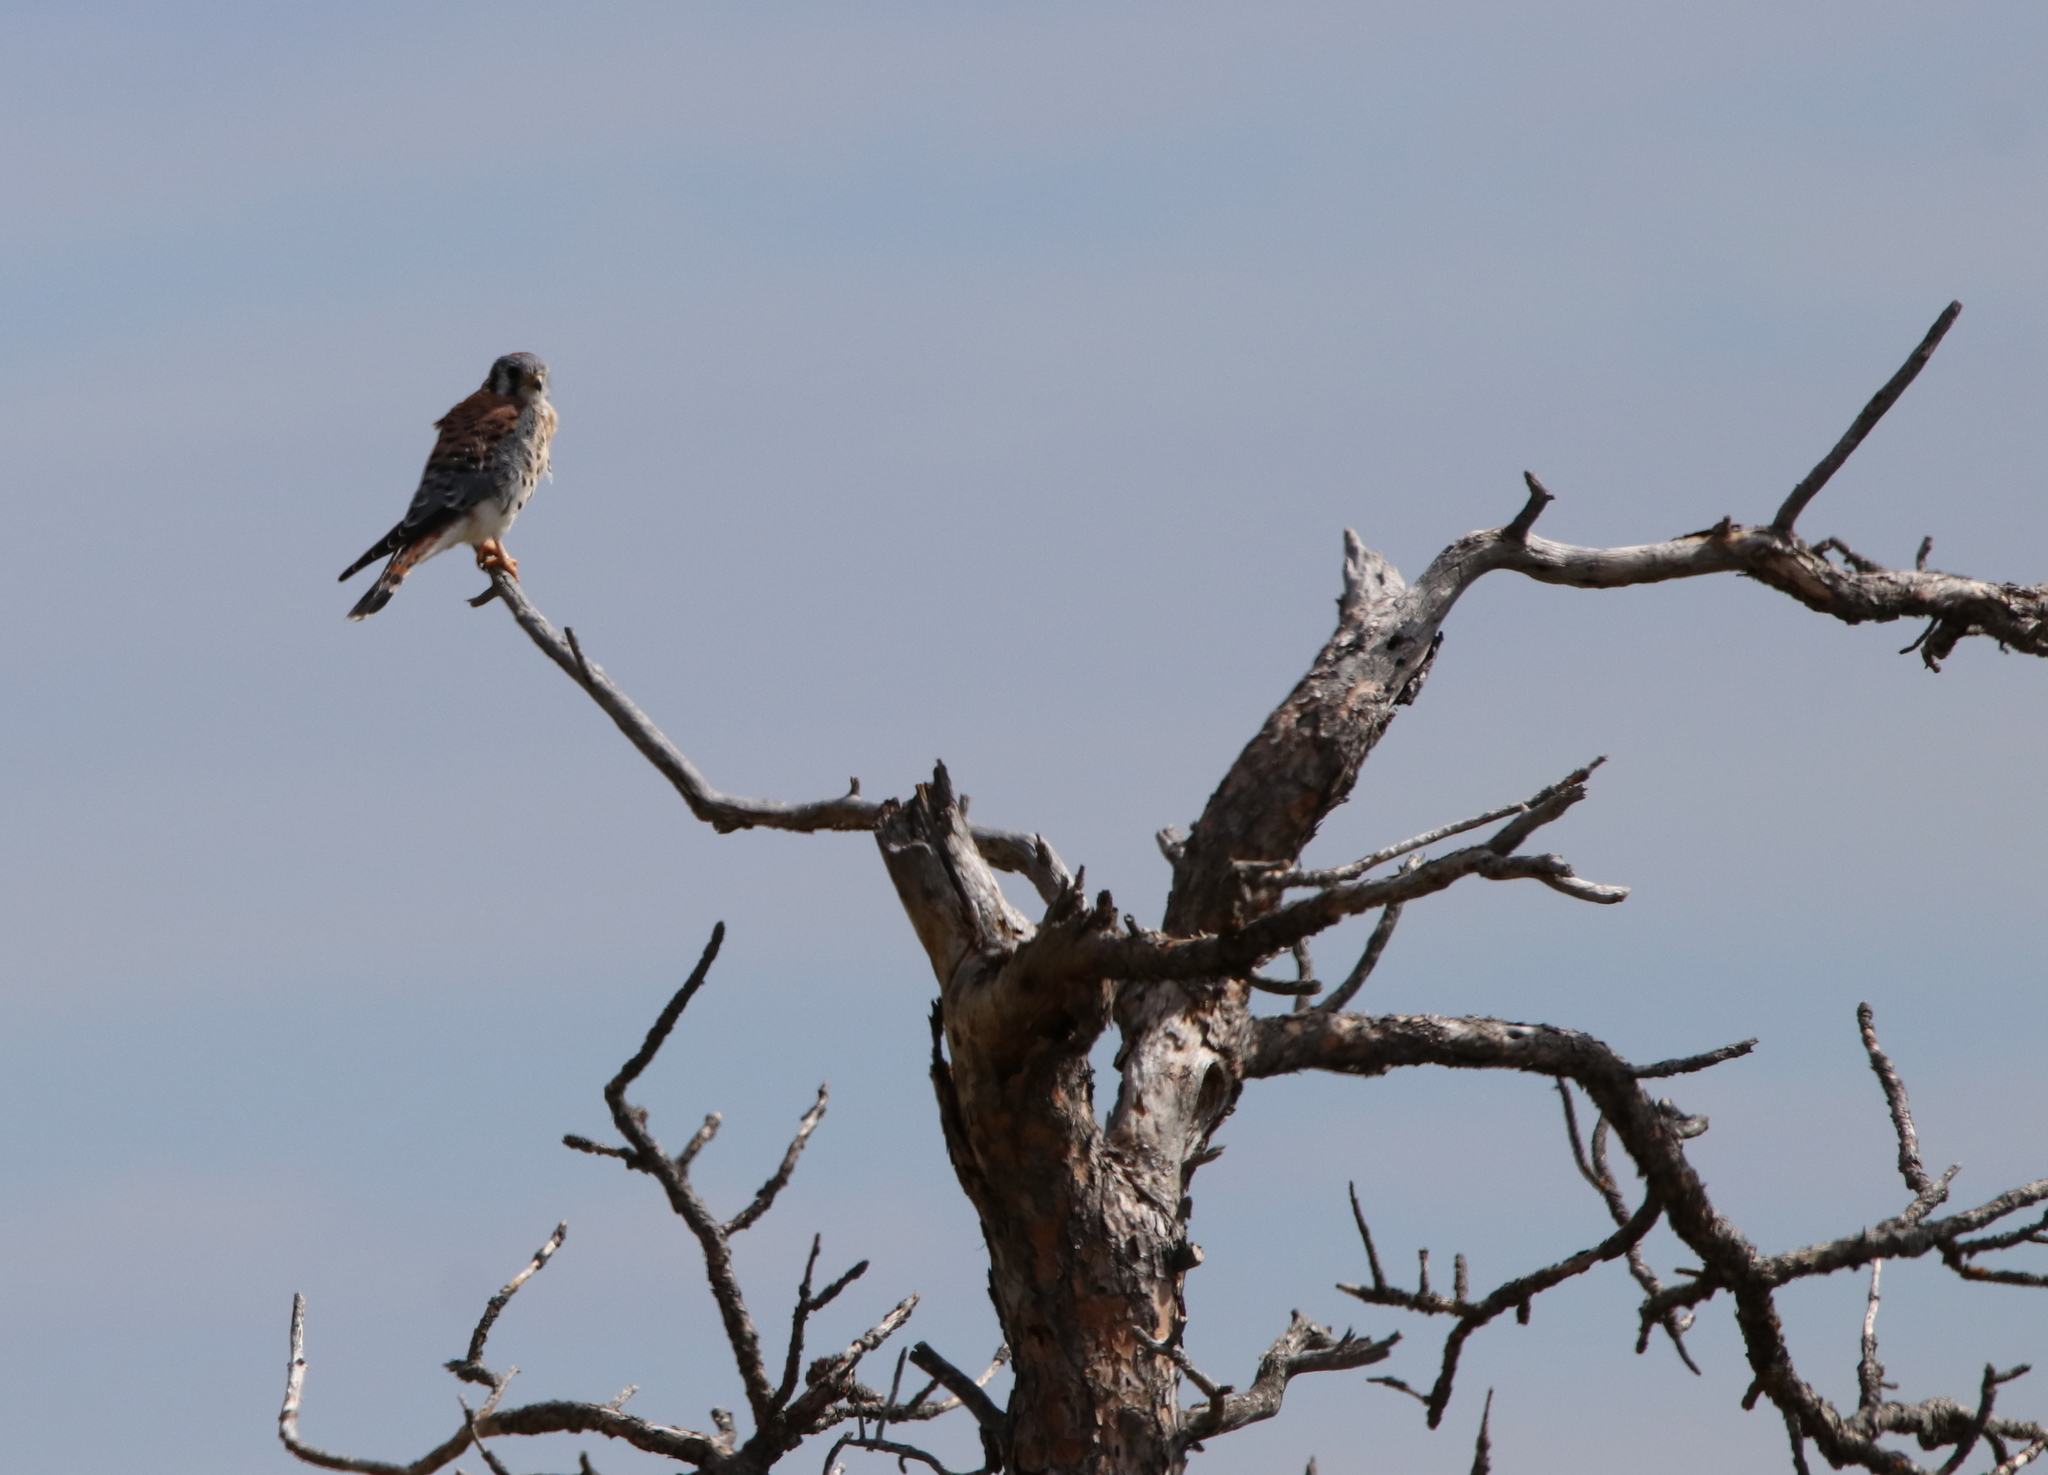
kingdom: Animalia
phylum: Chordata
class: Aves
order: Falconiformes
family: Falconidae
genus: Falco
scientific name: Falco sparverius
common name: American kestrel
